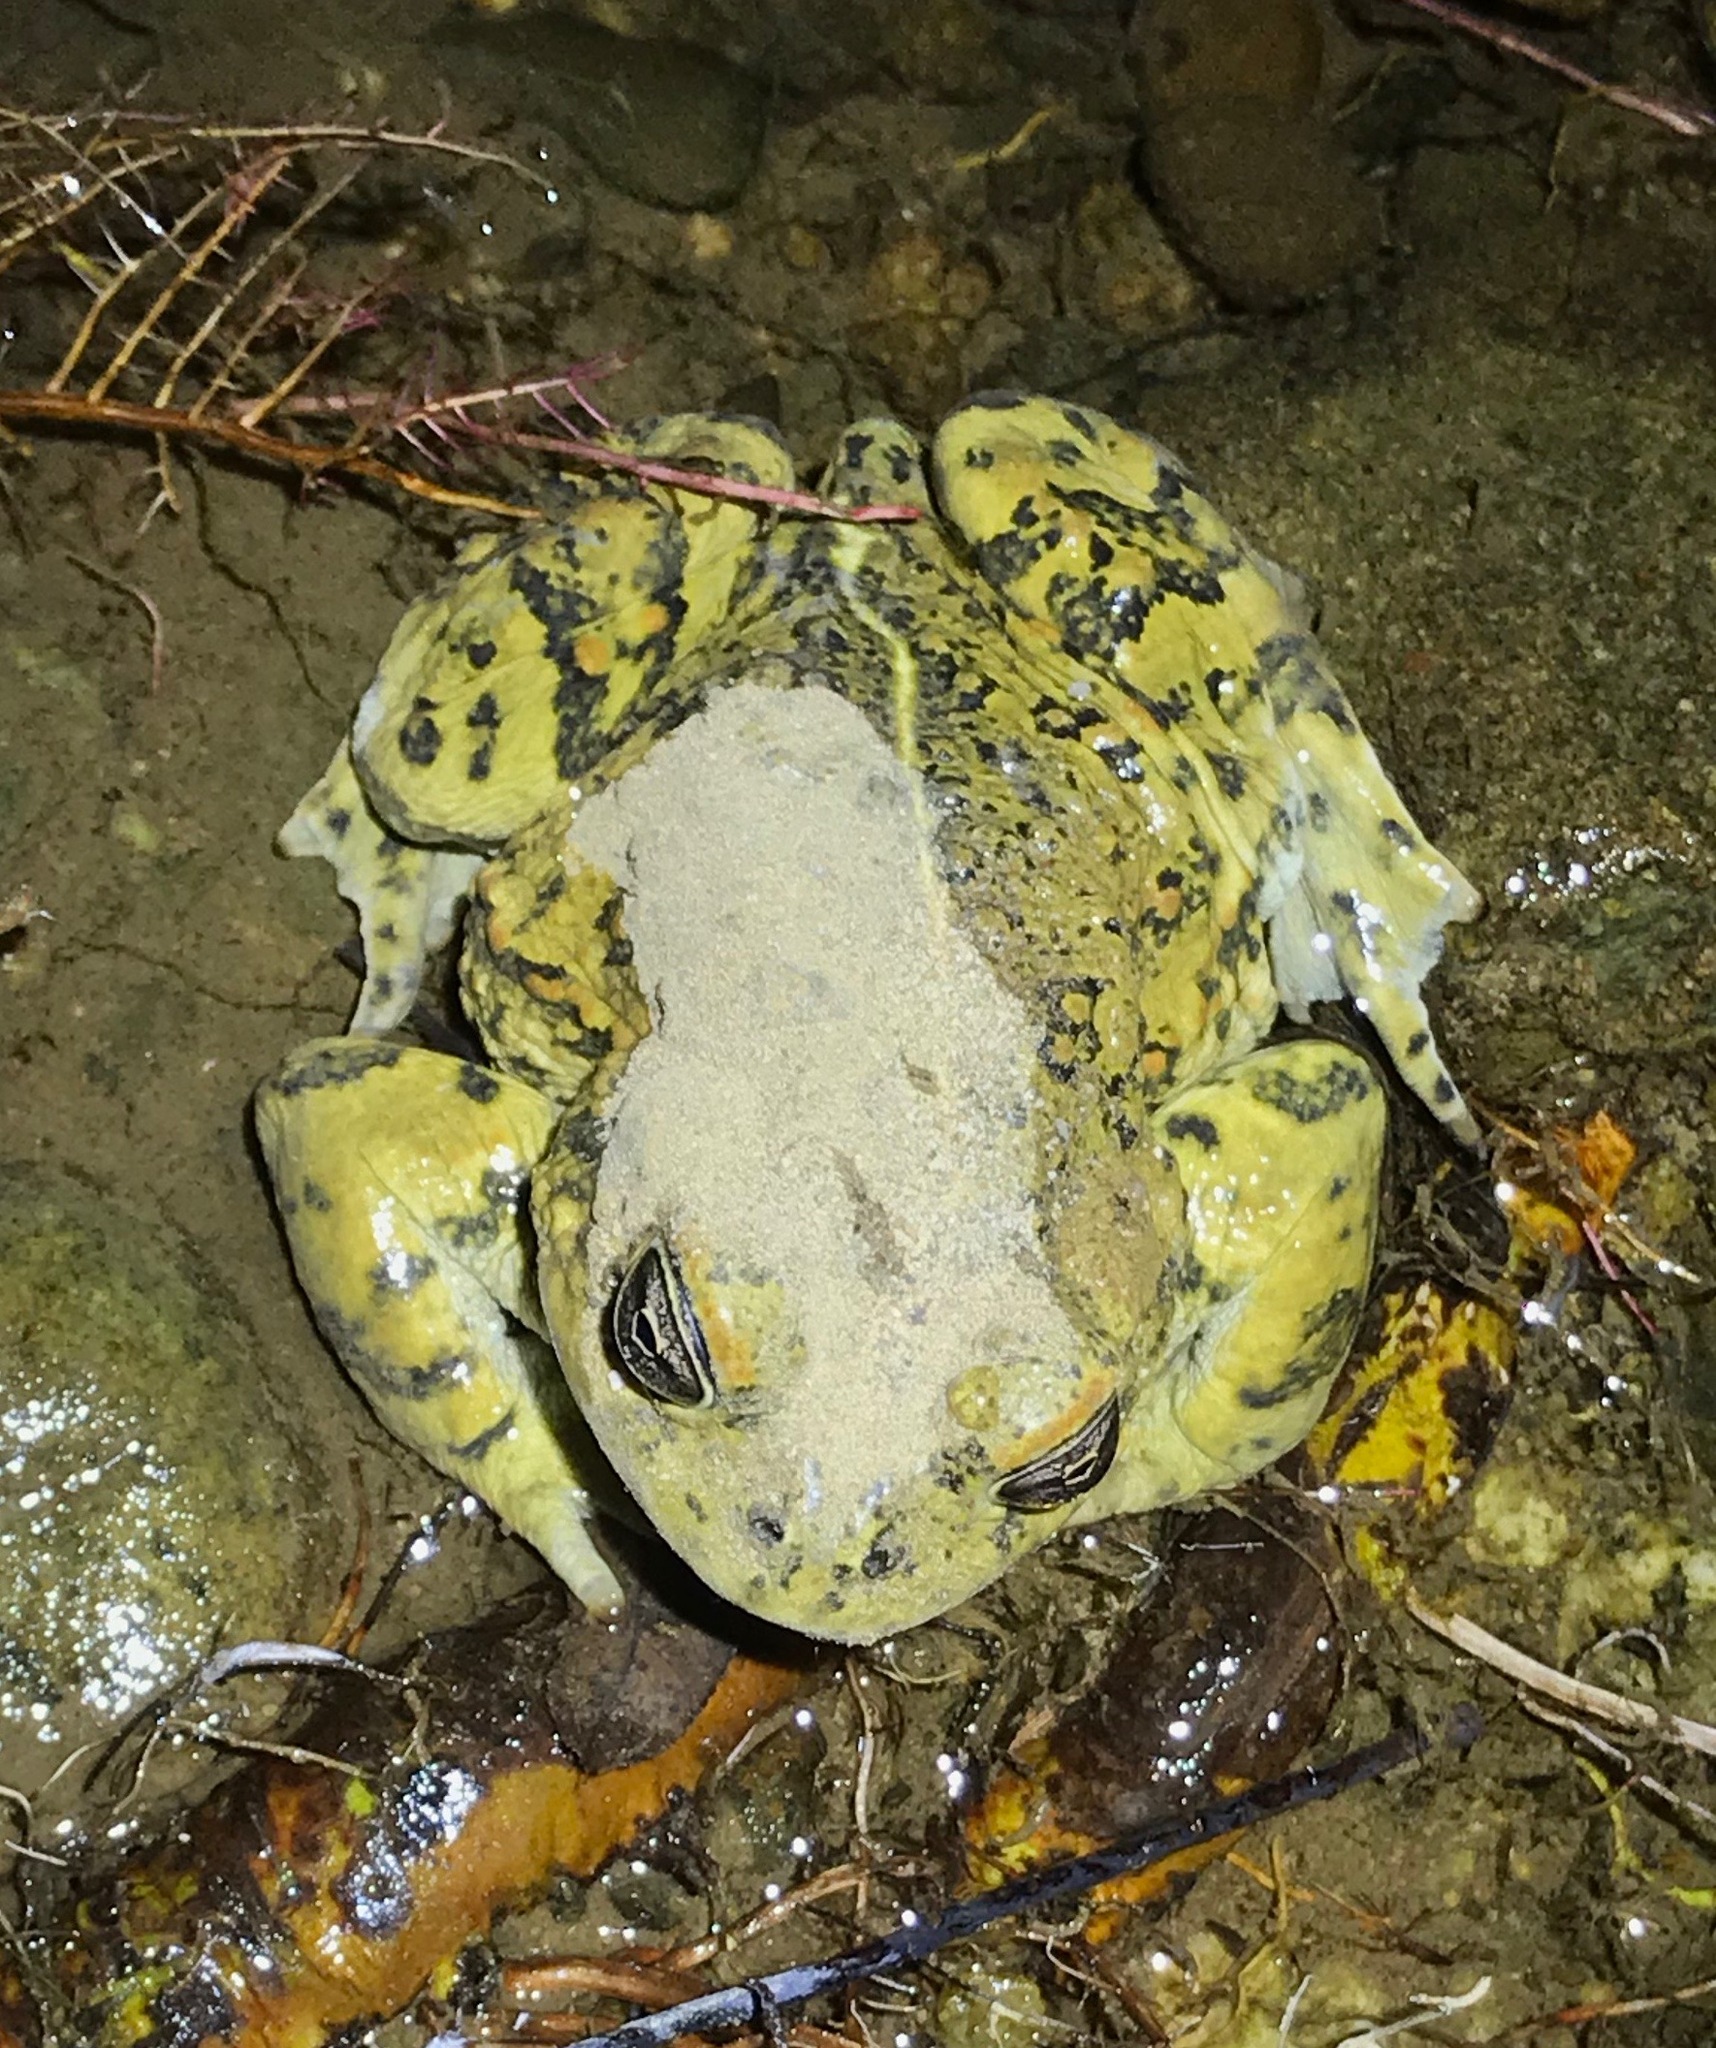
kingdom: Animalia
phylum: Chordata
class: Amphibia
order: Anura
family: Bufonidae
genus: Anaxyrus
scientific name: Anaxyrus boreas
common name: Western toad
